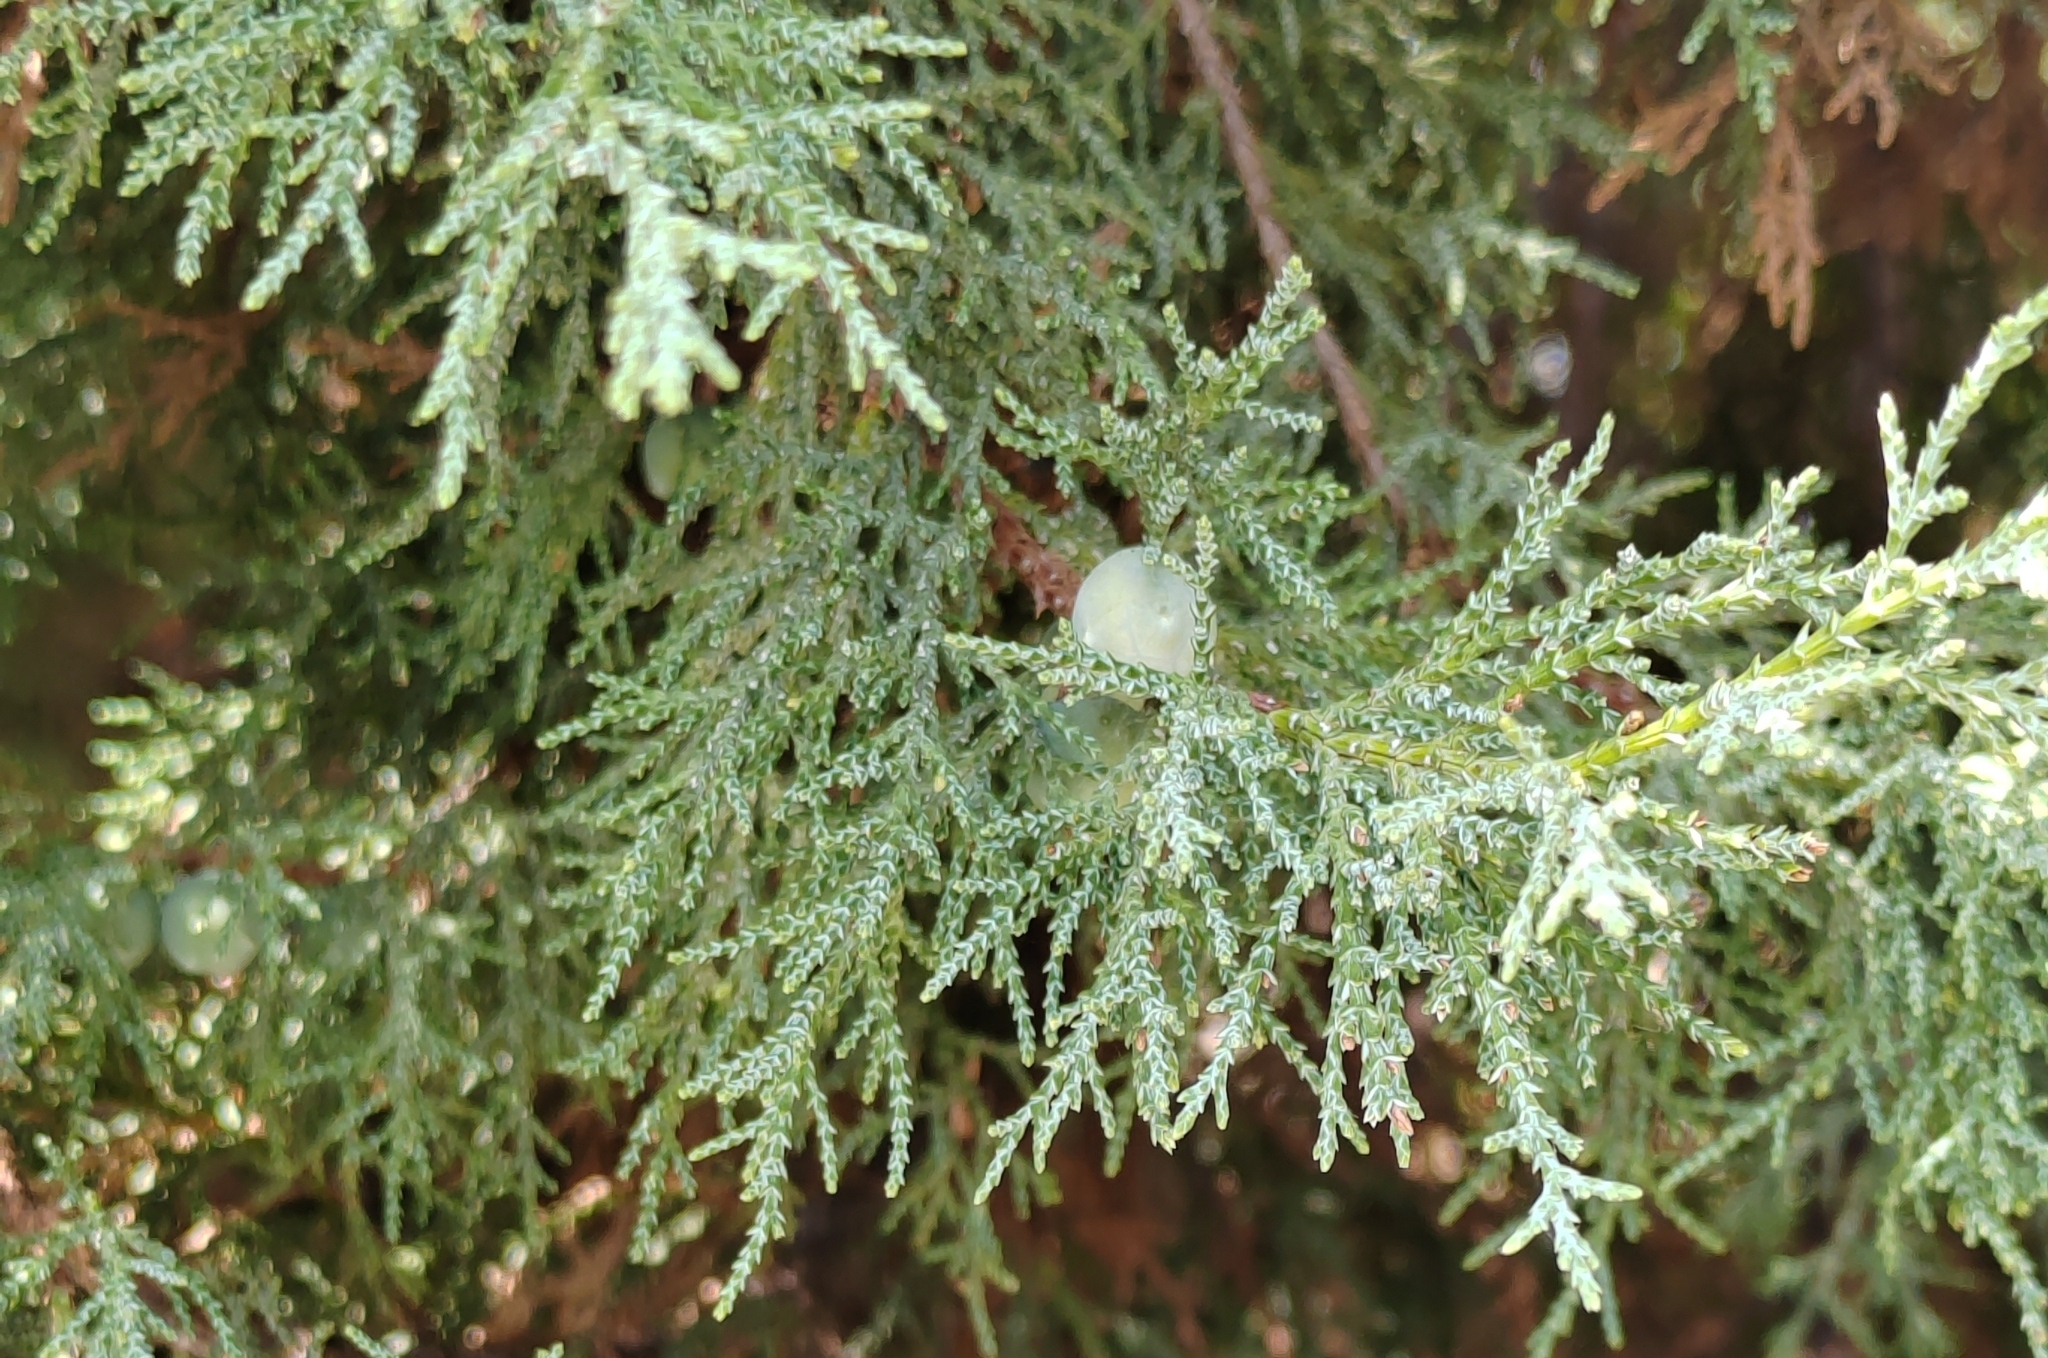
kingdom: Plantae
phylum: Tracheophyta
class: Pinopsida
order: Pinales
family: Cupressaceae
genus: Juniperus
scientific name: Juniperus excelsa
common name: Crimean juniper
